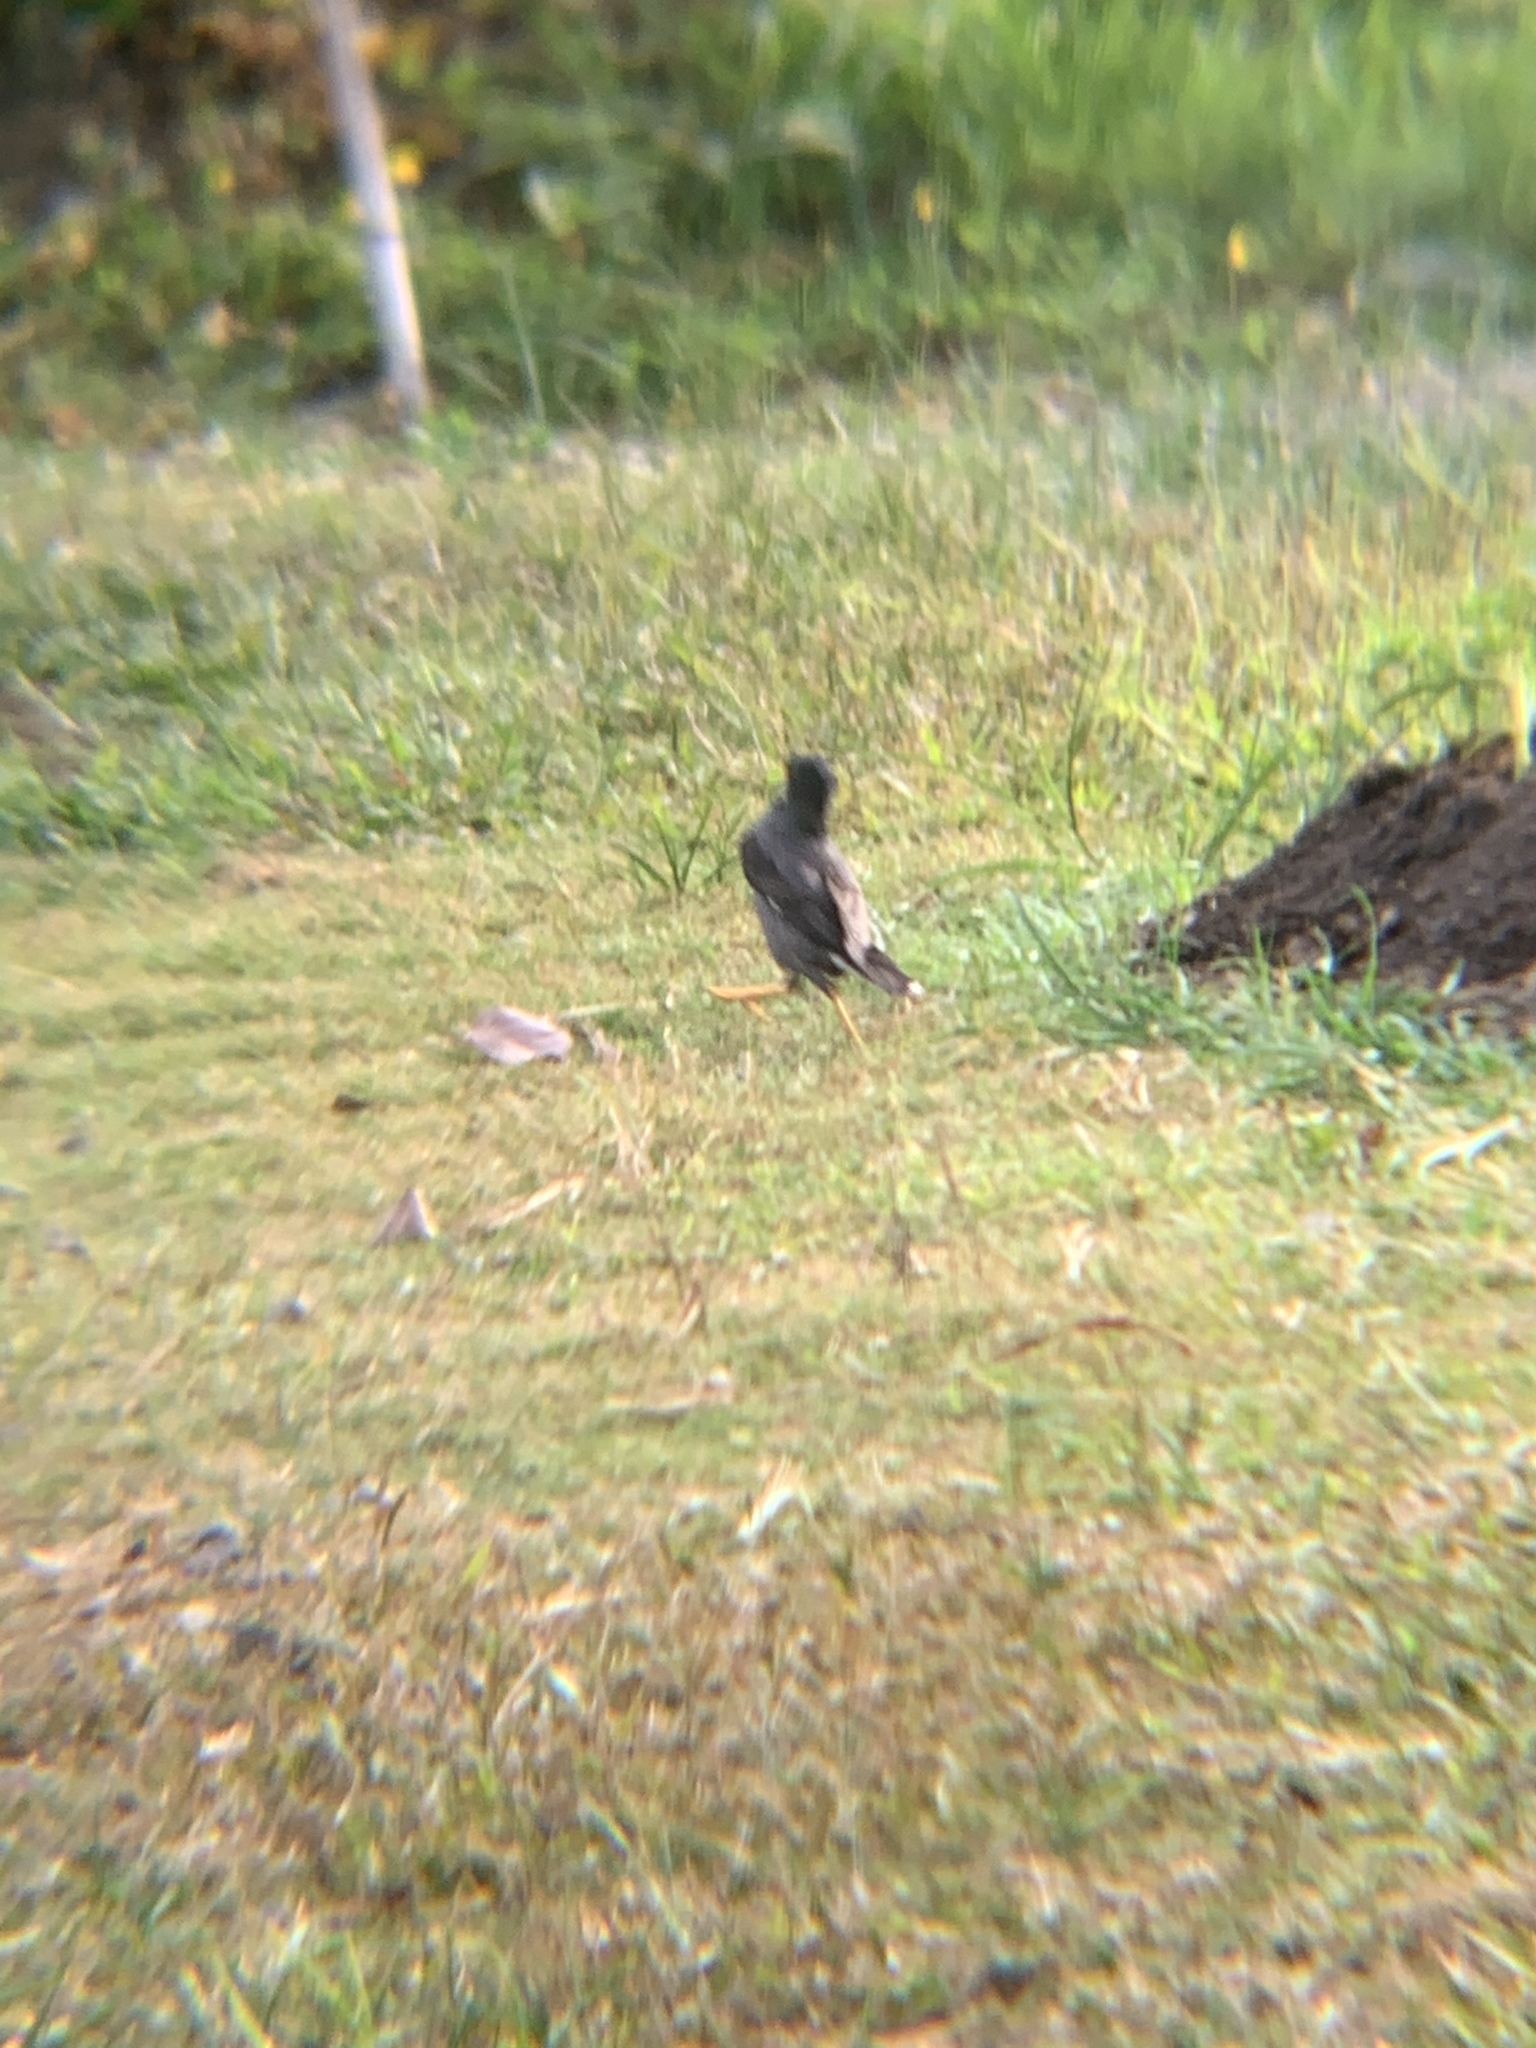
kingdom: Animalia
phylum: Chordata
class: Aves
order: Passeriformes
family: Sturnidae
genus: Acridotheres
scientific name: Acridotheres javanicus
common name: Javan myna
